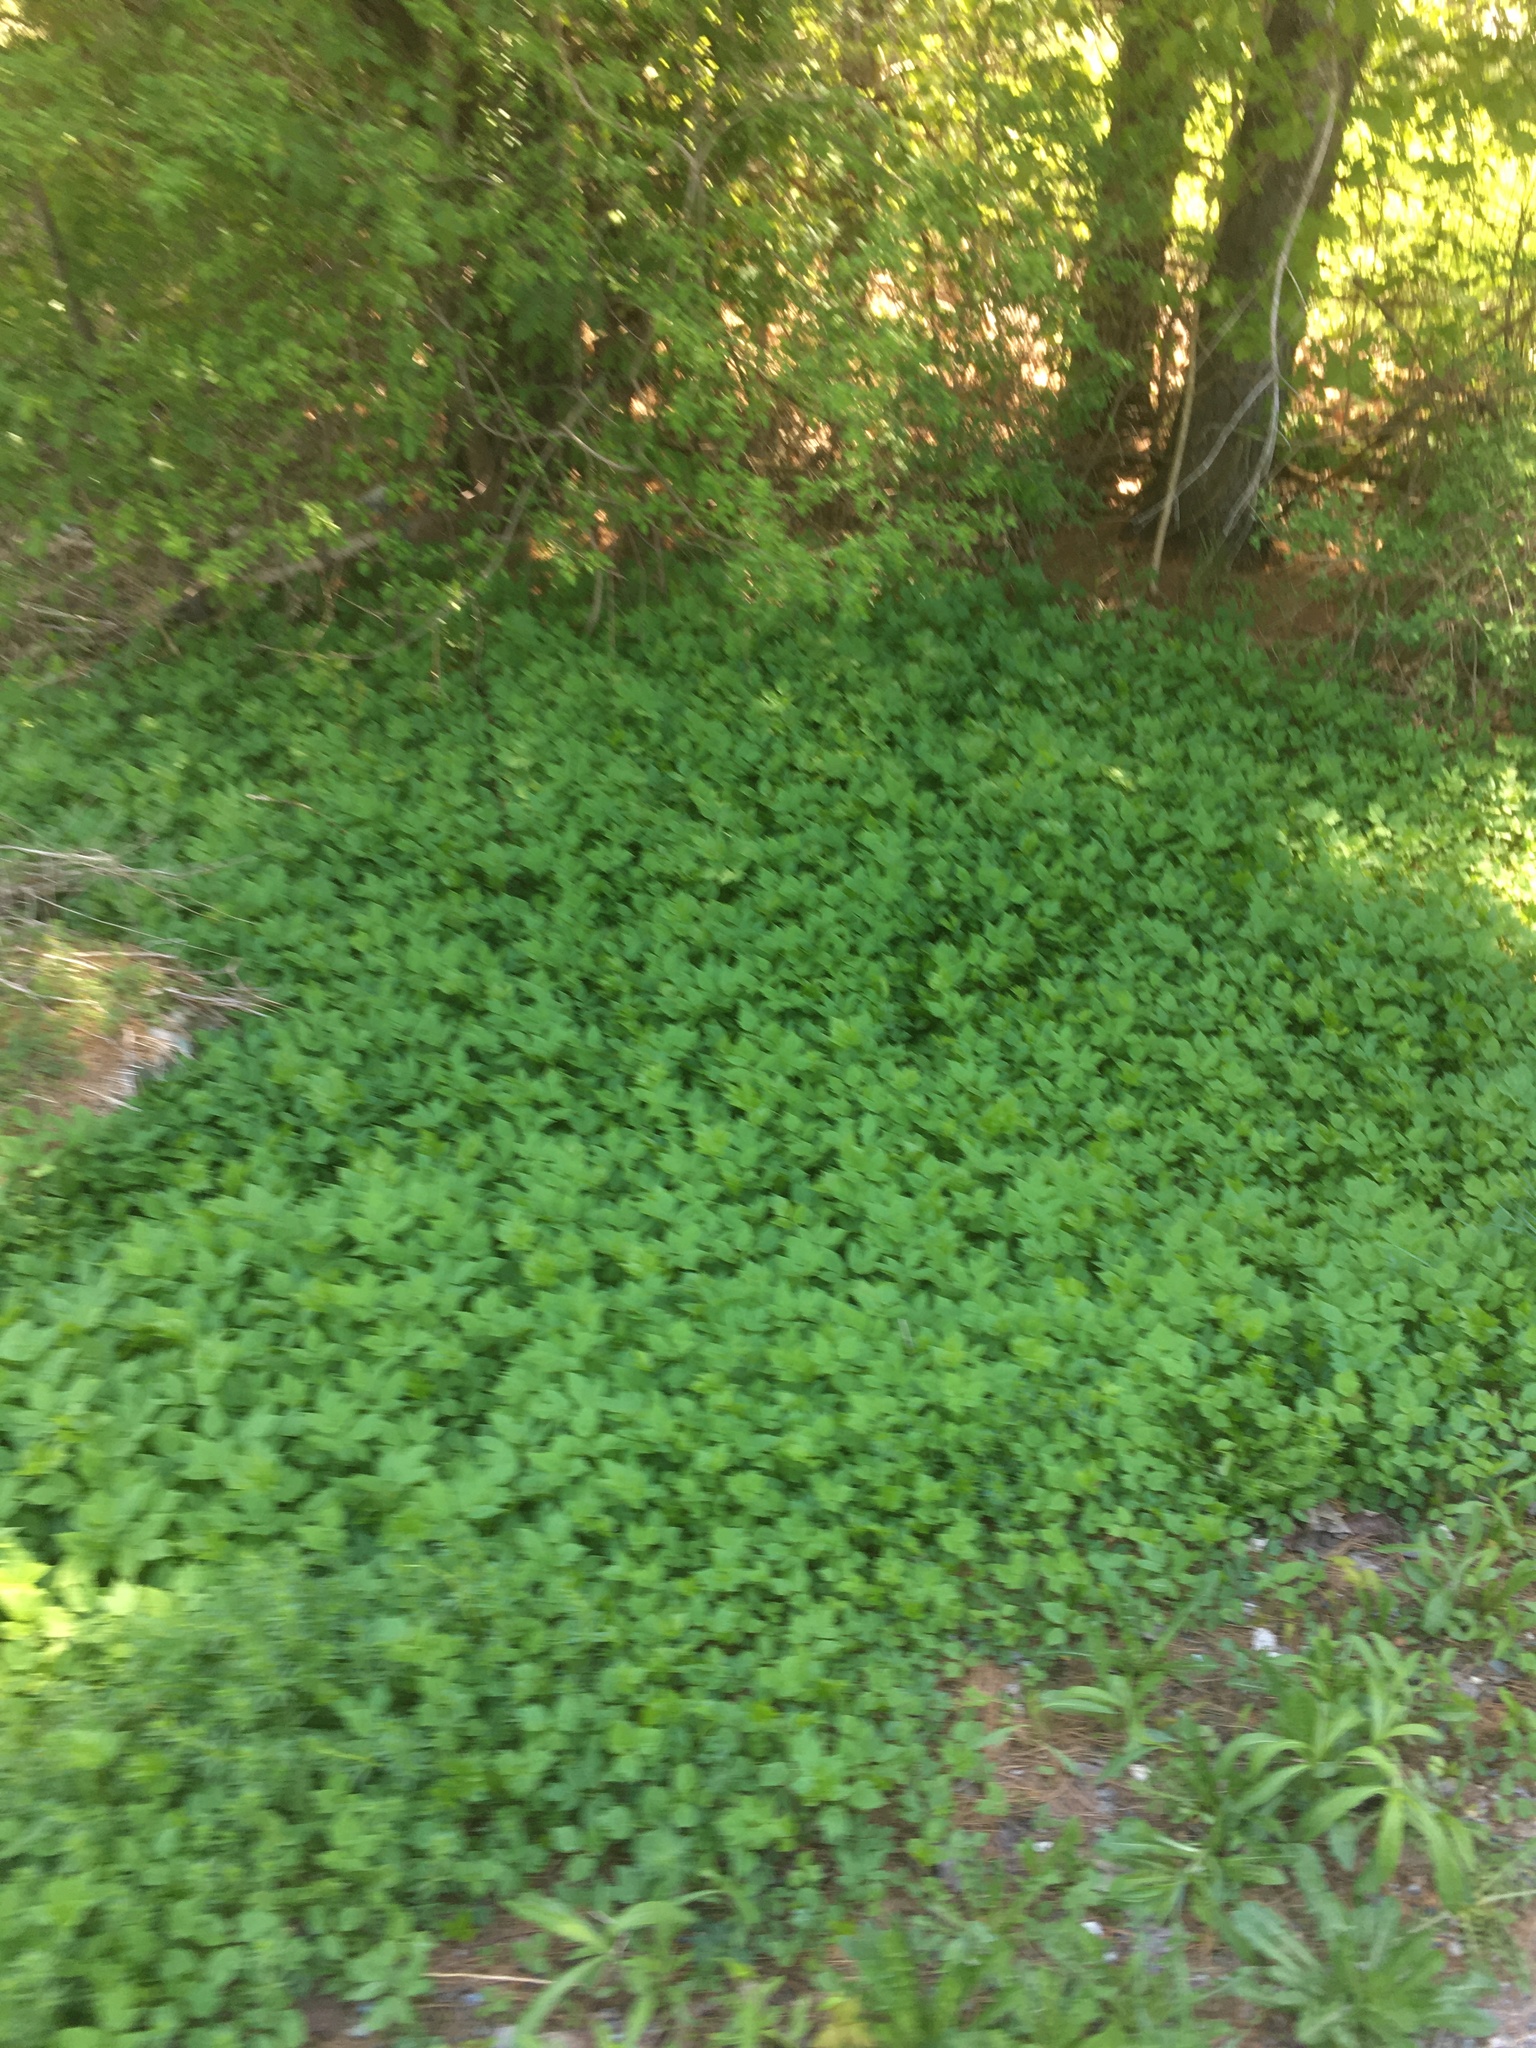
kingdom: Plantae
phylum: Tracheophyta
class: Magnoliopsida
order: Apiales
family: Apiaceae
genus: Aegopodium
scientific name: Aegopodium podagraria
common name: Ground-elder
